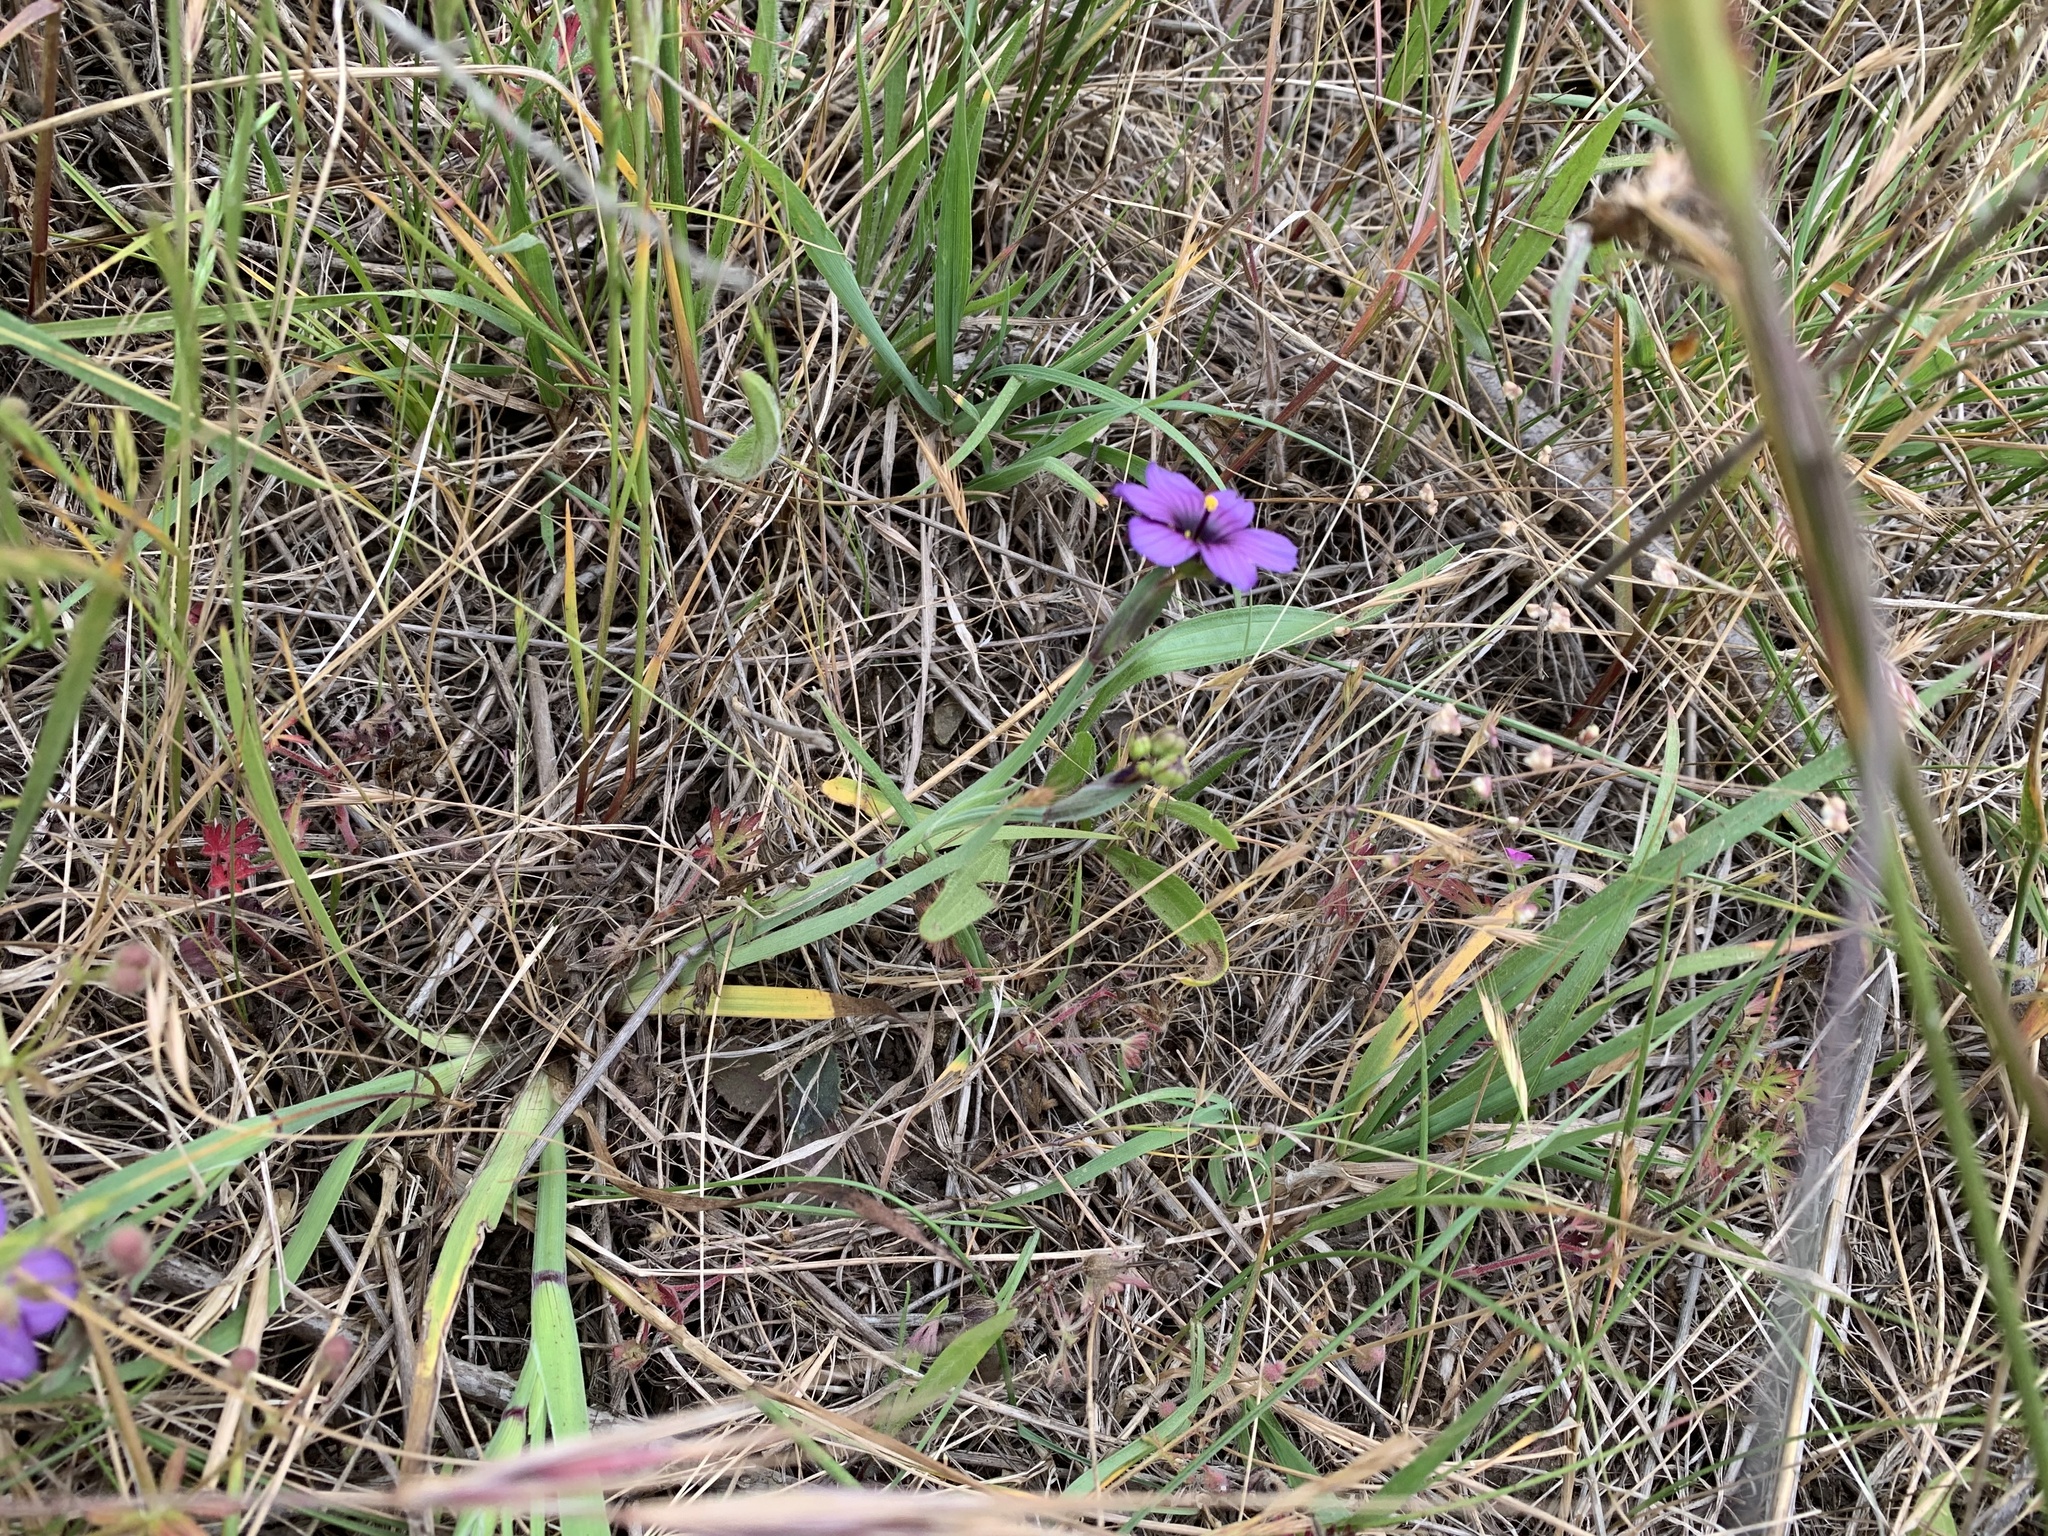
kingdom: Plantae
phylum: Tracheophyta
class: Liliopsida
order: Asparagales
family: Iridaceae
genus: Sisyrinchium
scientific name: Sisyrinchium bellum
